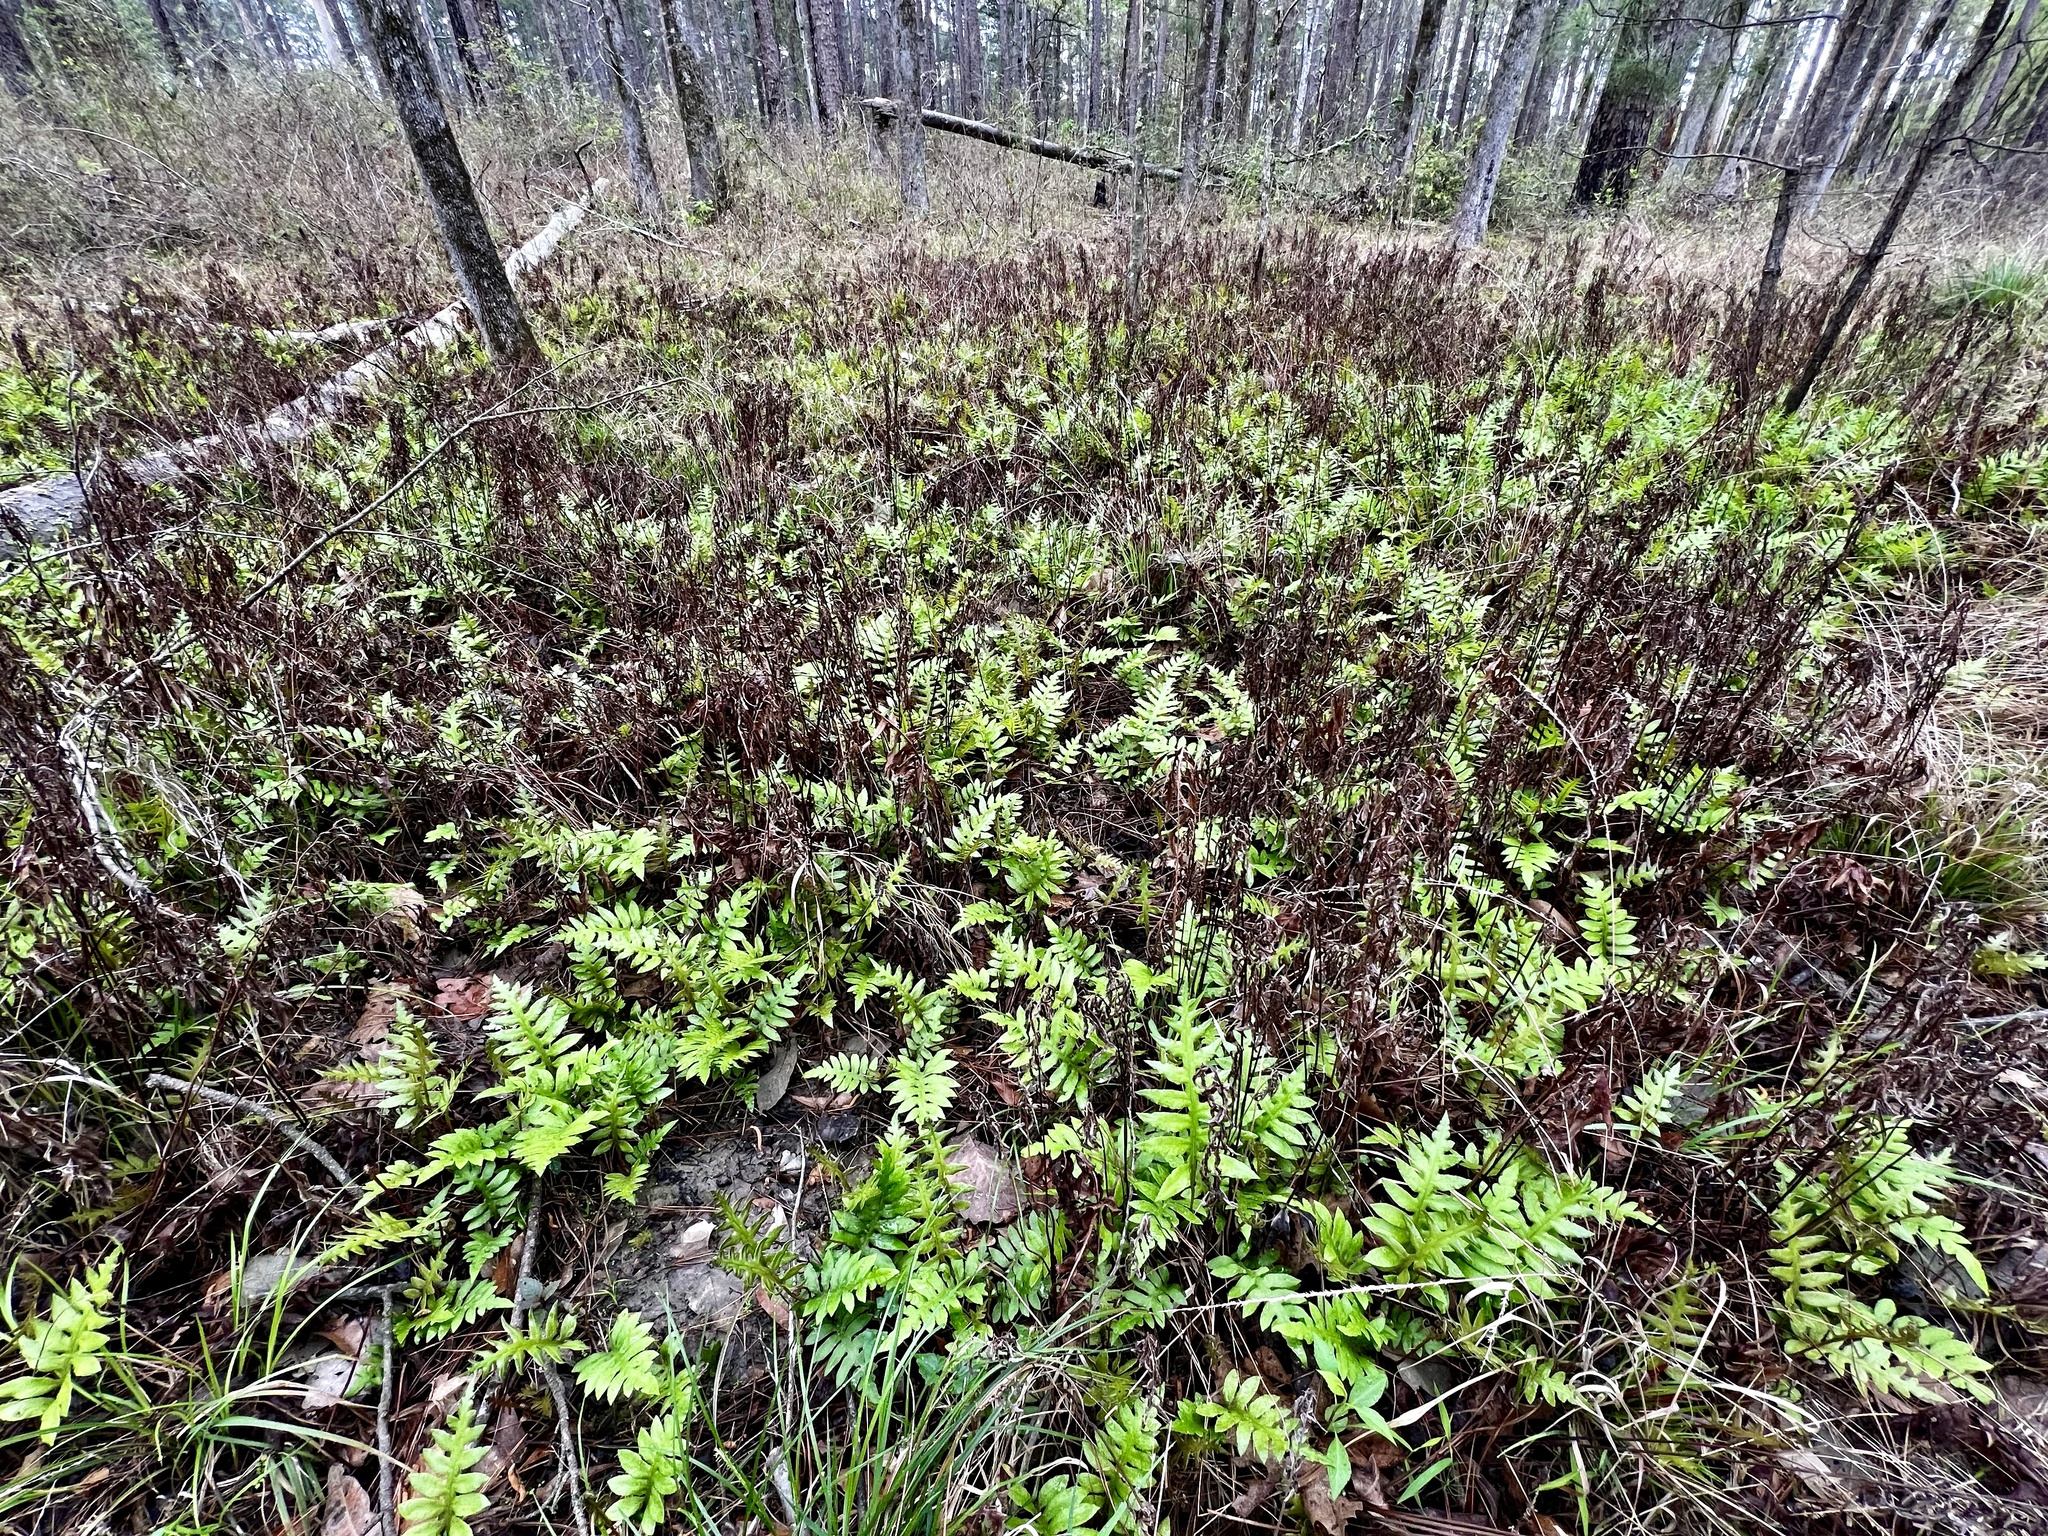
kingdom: Plantae
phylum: Tracheophyta
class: Polypodiopsida
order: Polypodiales
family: Blechnaceae
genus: Lorinseria
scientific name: Lorinseria areolata
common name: Dwarf chain fern
